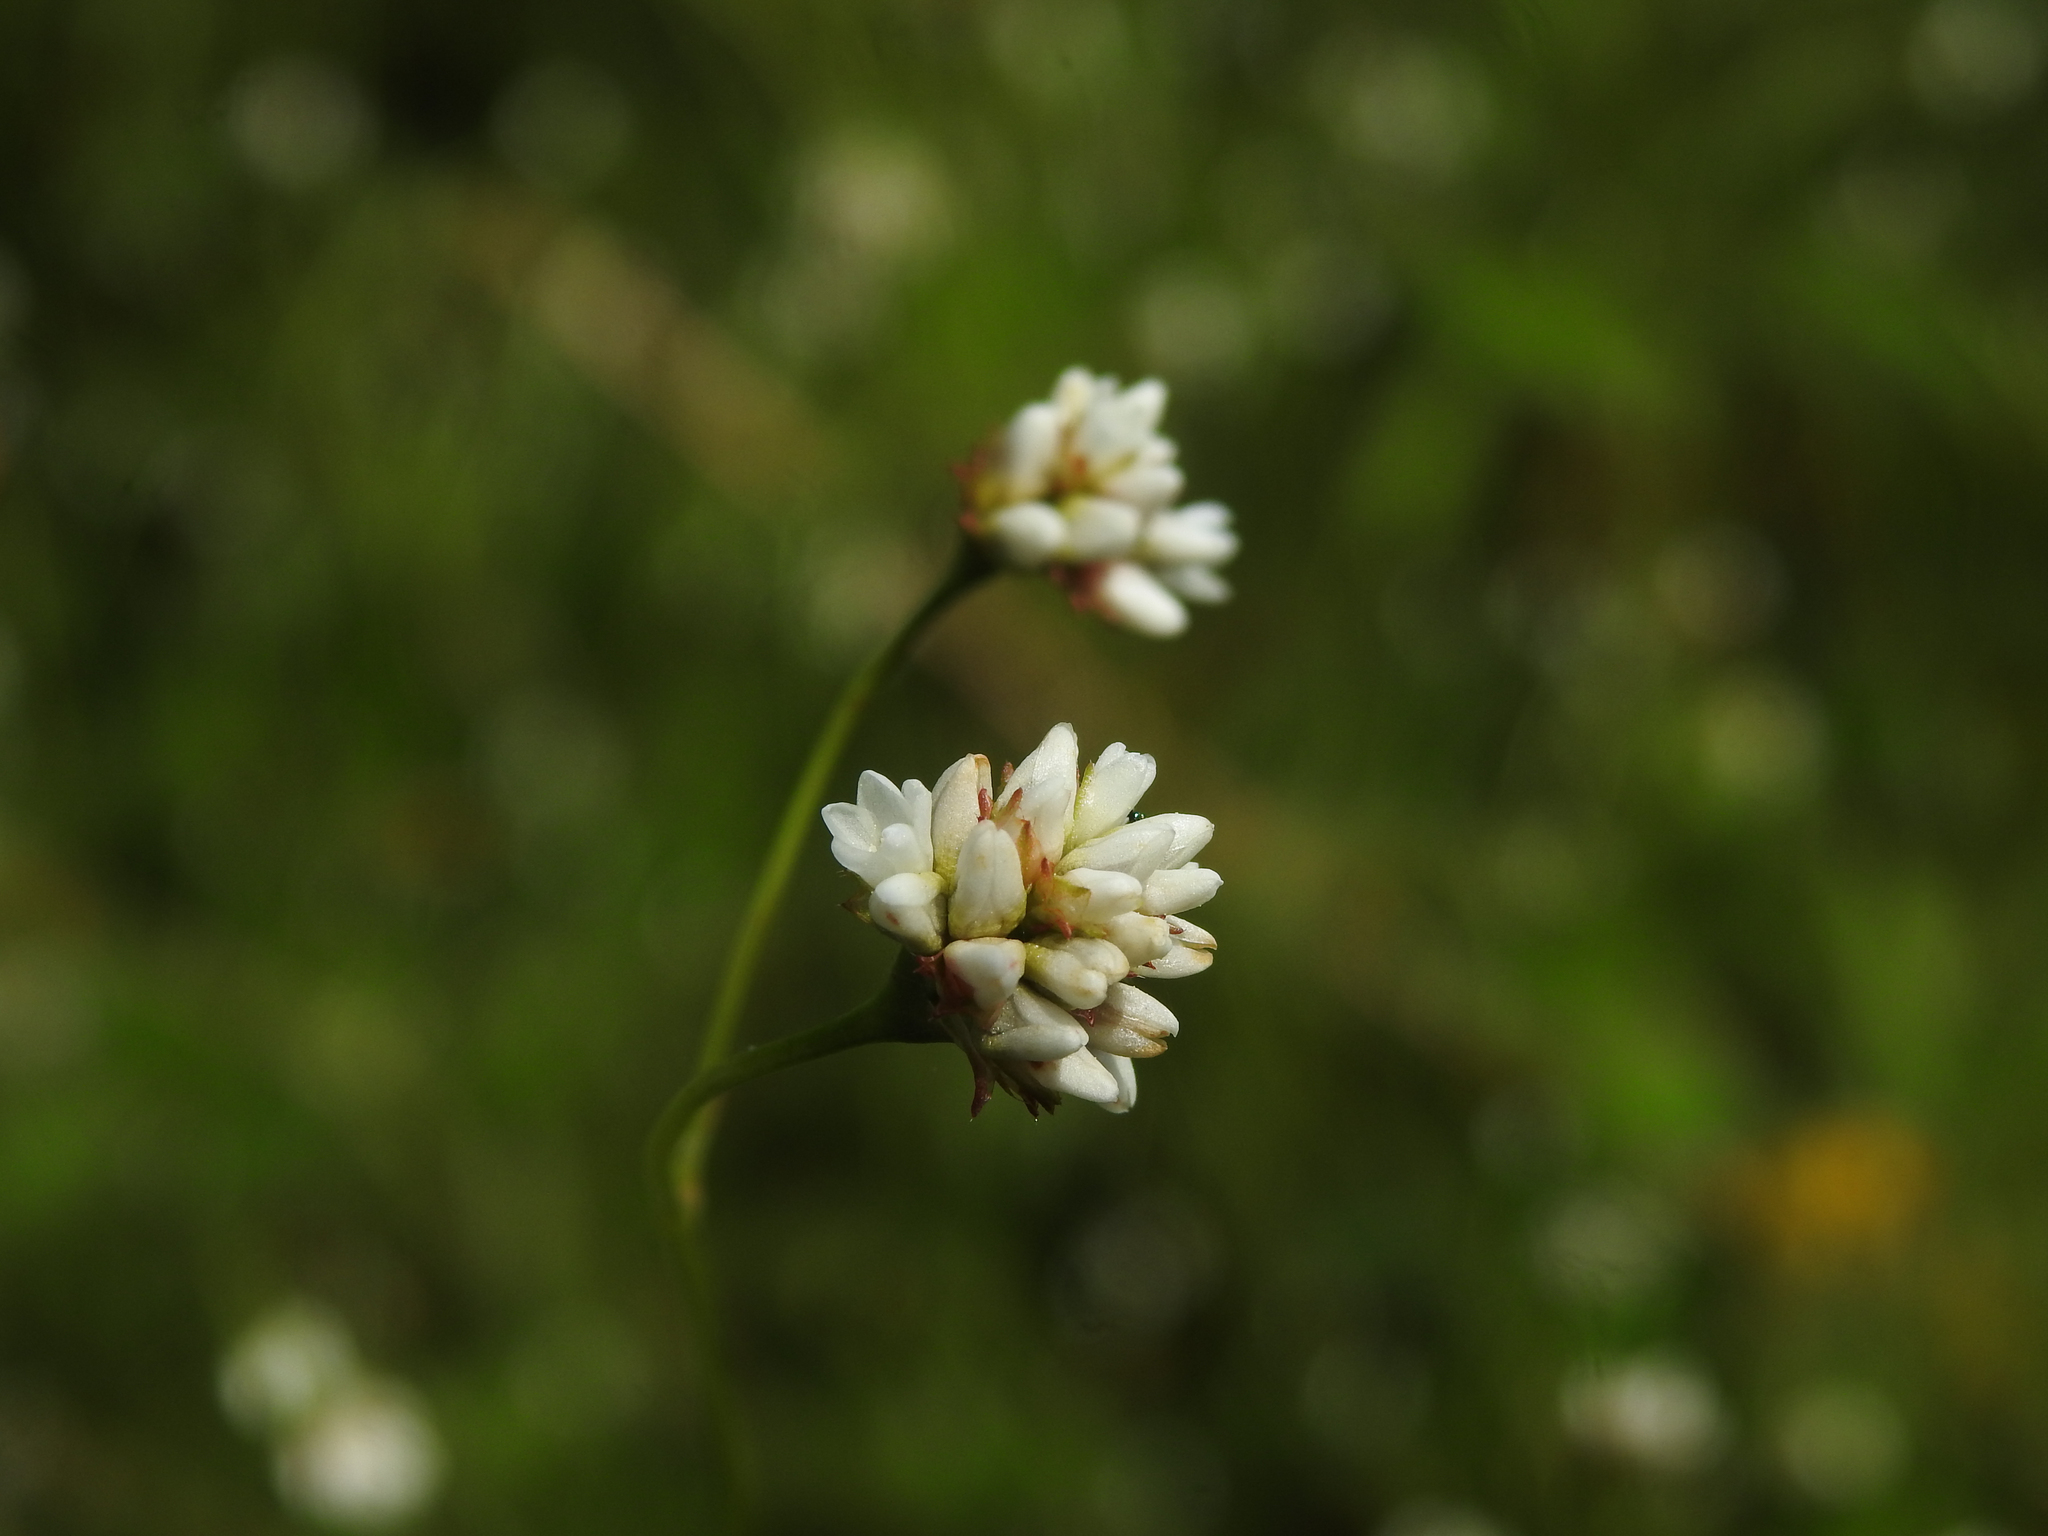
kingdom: Plantae
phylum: Tracheophyta
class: Magnoliopsida
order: Caryophyllales
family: Polygonaceae
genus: Persicaria
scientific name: Persicaria sagittata
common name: American tearthumb
